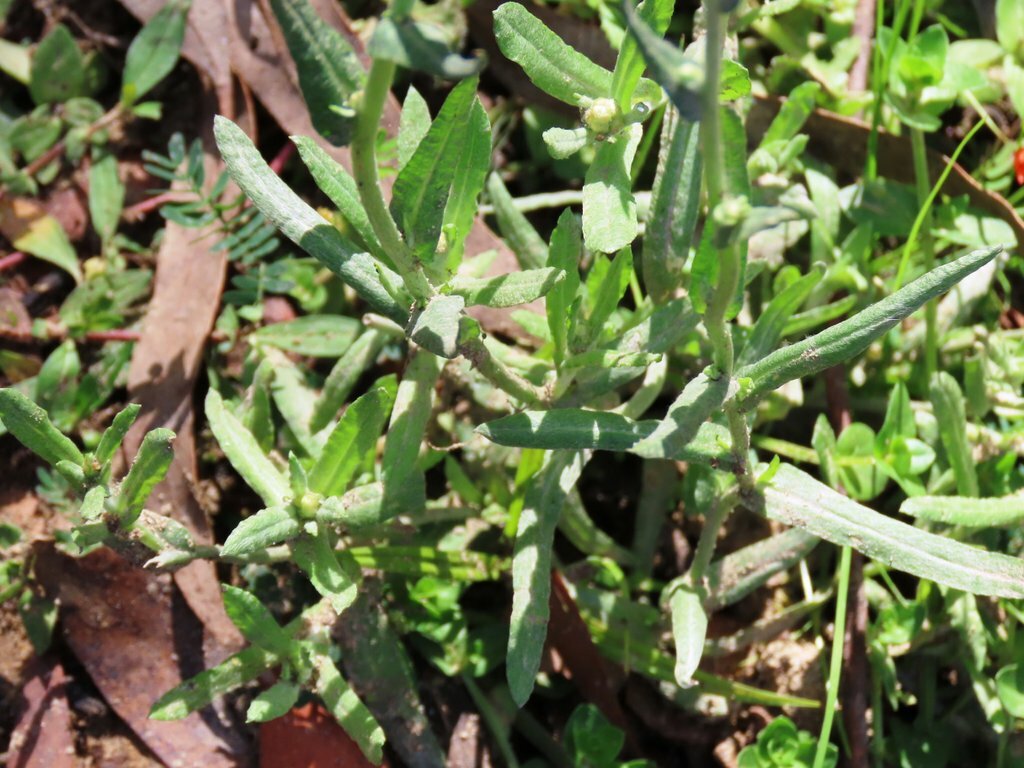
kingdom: Plantae
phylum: Tracheophyta
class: Magnoliopsida
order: Asterales
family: Asteraceae
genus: Helichrysum
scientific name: Helichrysum luteoalbum
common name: Daisy
